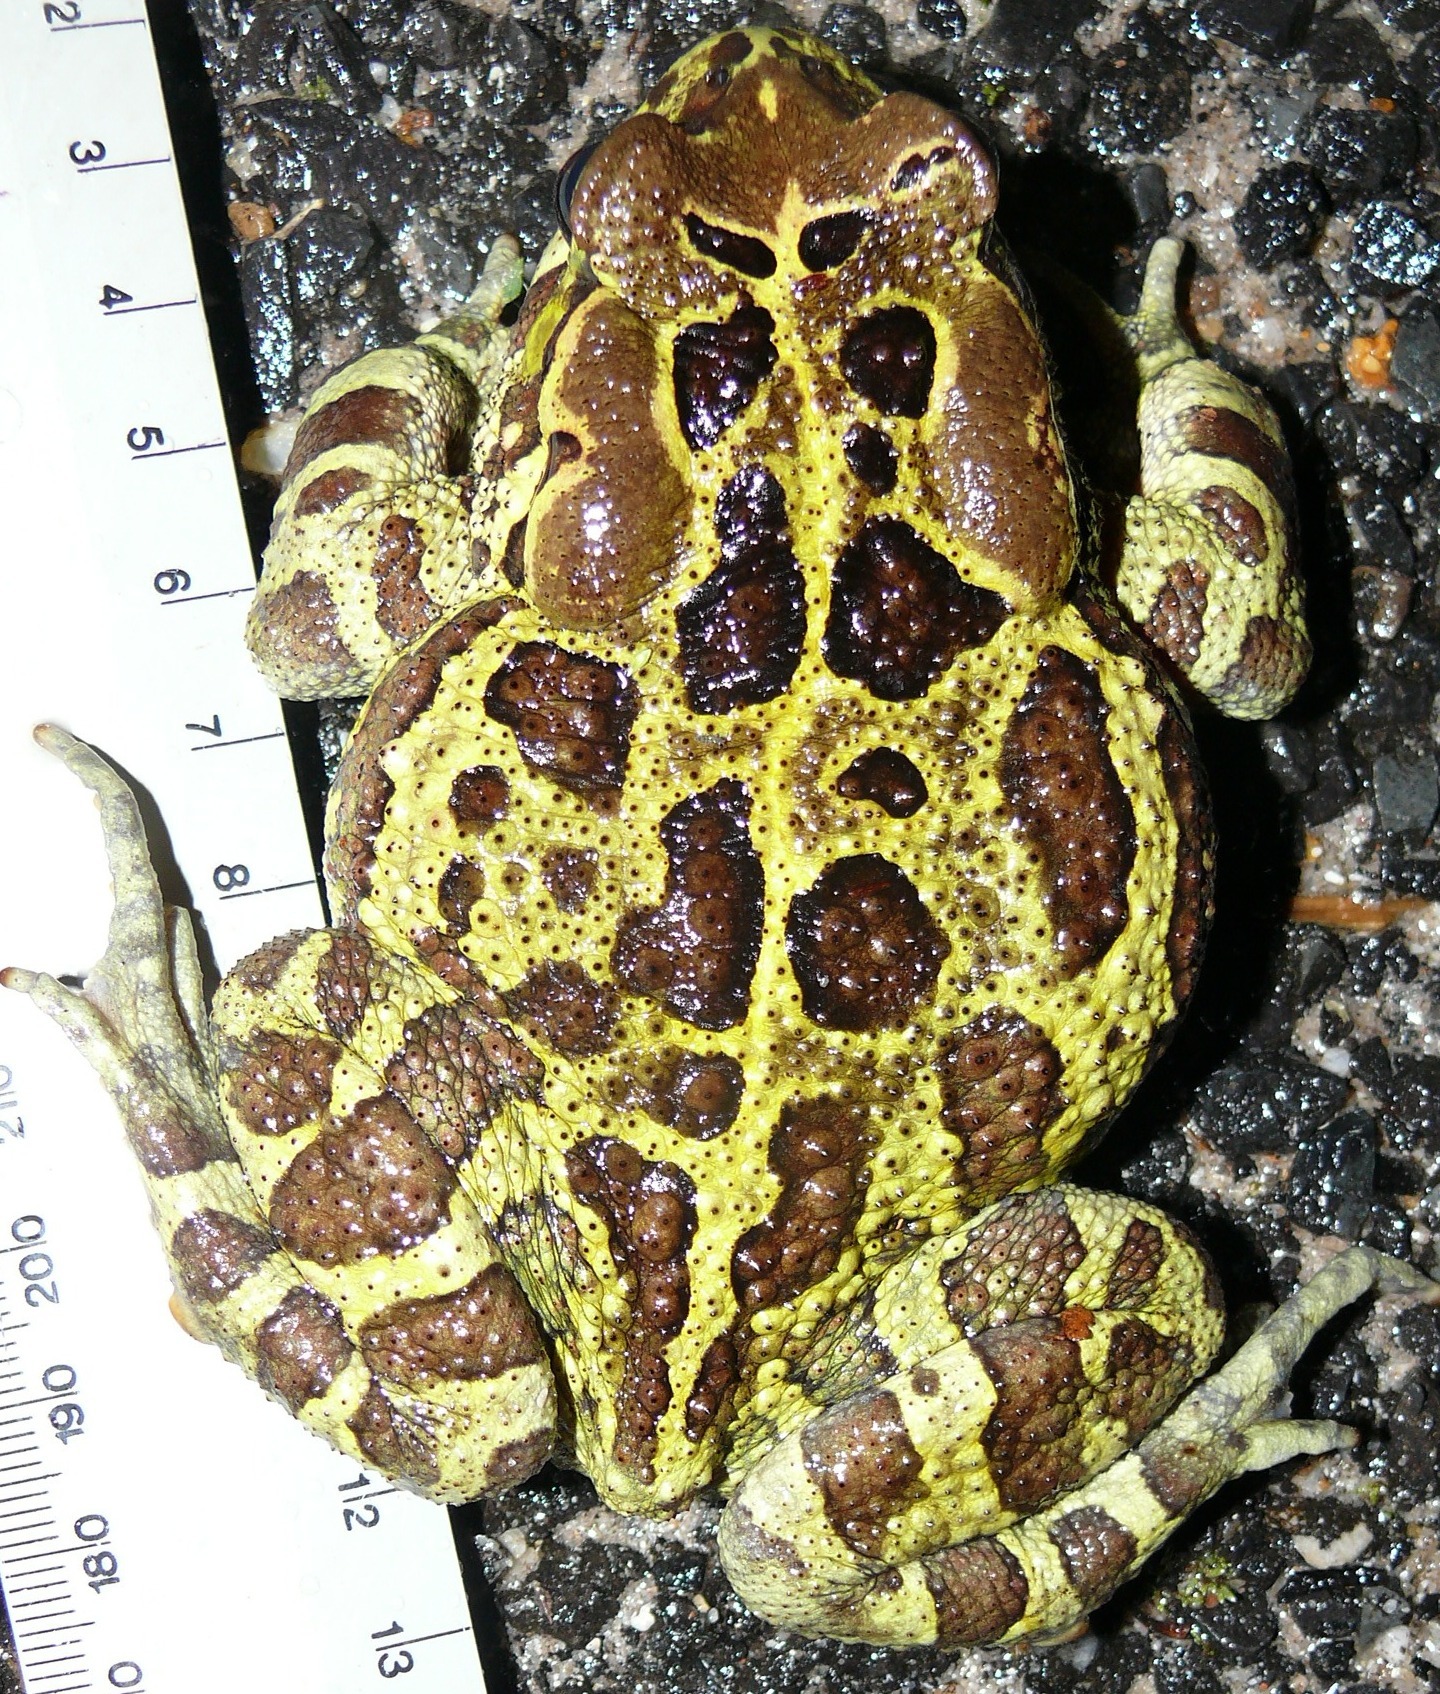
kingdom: Animalia
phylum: Chordata
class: Amphibia
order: Anura
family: Bufonidae
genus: Sclerophrys
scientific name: Sclerophrys pantherina
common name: Panther toad
